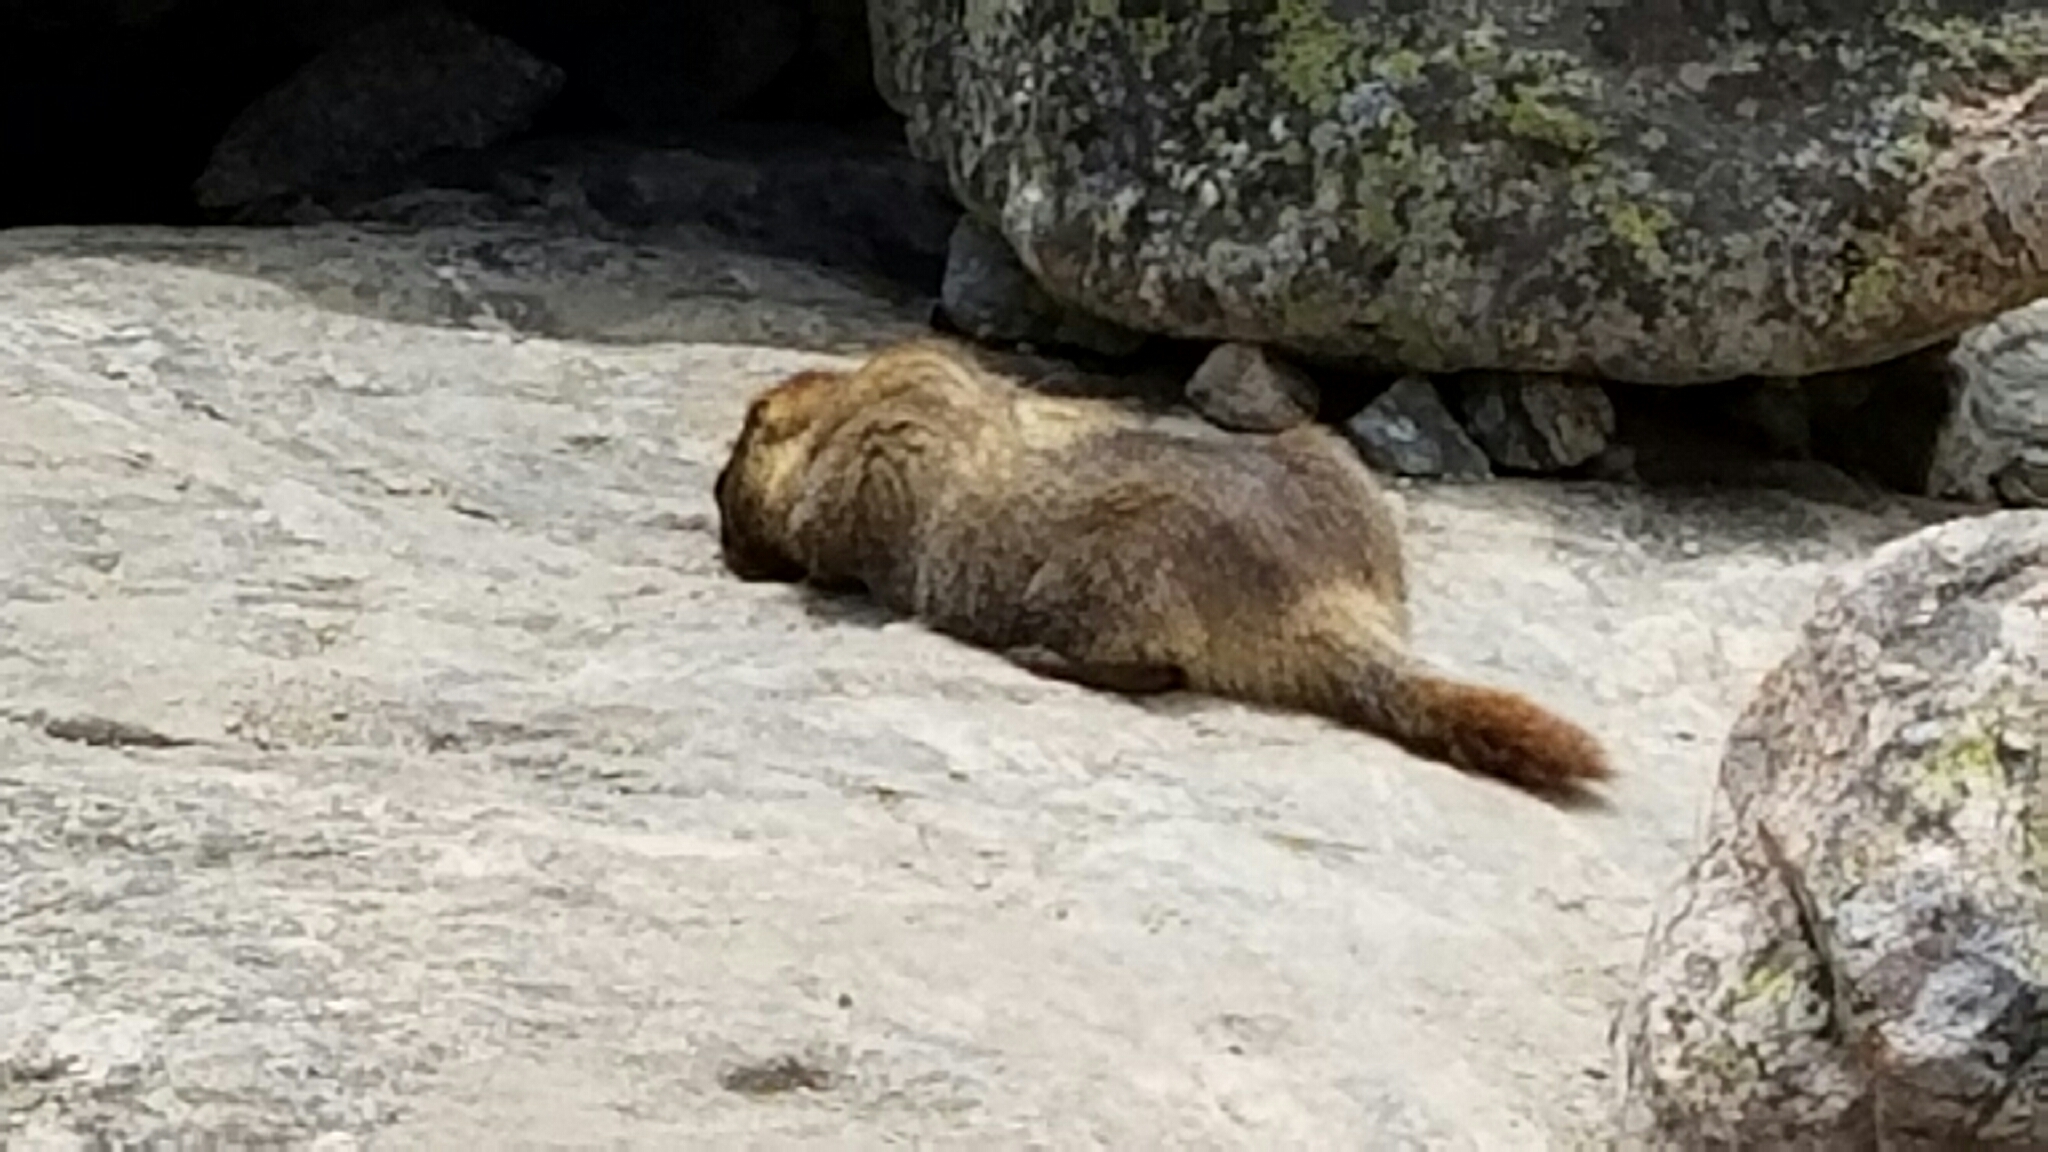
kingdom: Animalia
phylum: Chordata
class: Mammalia
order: Rodentia
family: Sciuridae
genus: Marmota
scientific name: Marmota flaviventris
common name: Yellow-bellied marmot
